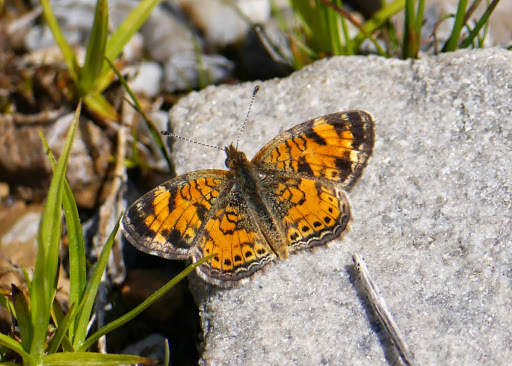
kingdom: Animalia
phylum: Arthropoda
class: Insecta
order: Lepidoptera
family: Nymphalidae
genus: Phyciodes
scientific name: Phyciodes tharos
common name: Pearl crescent
